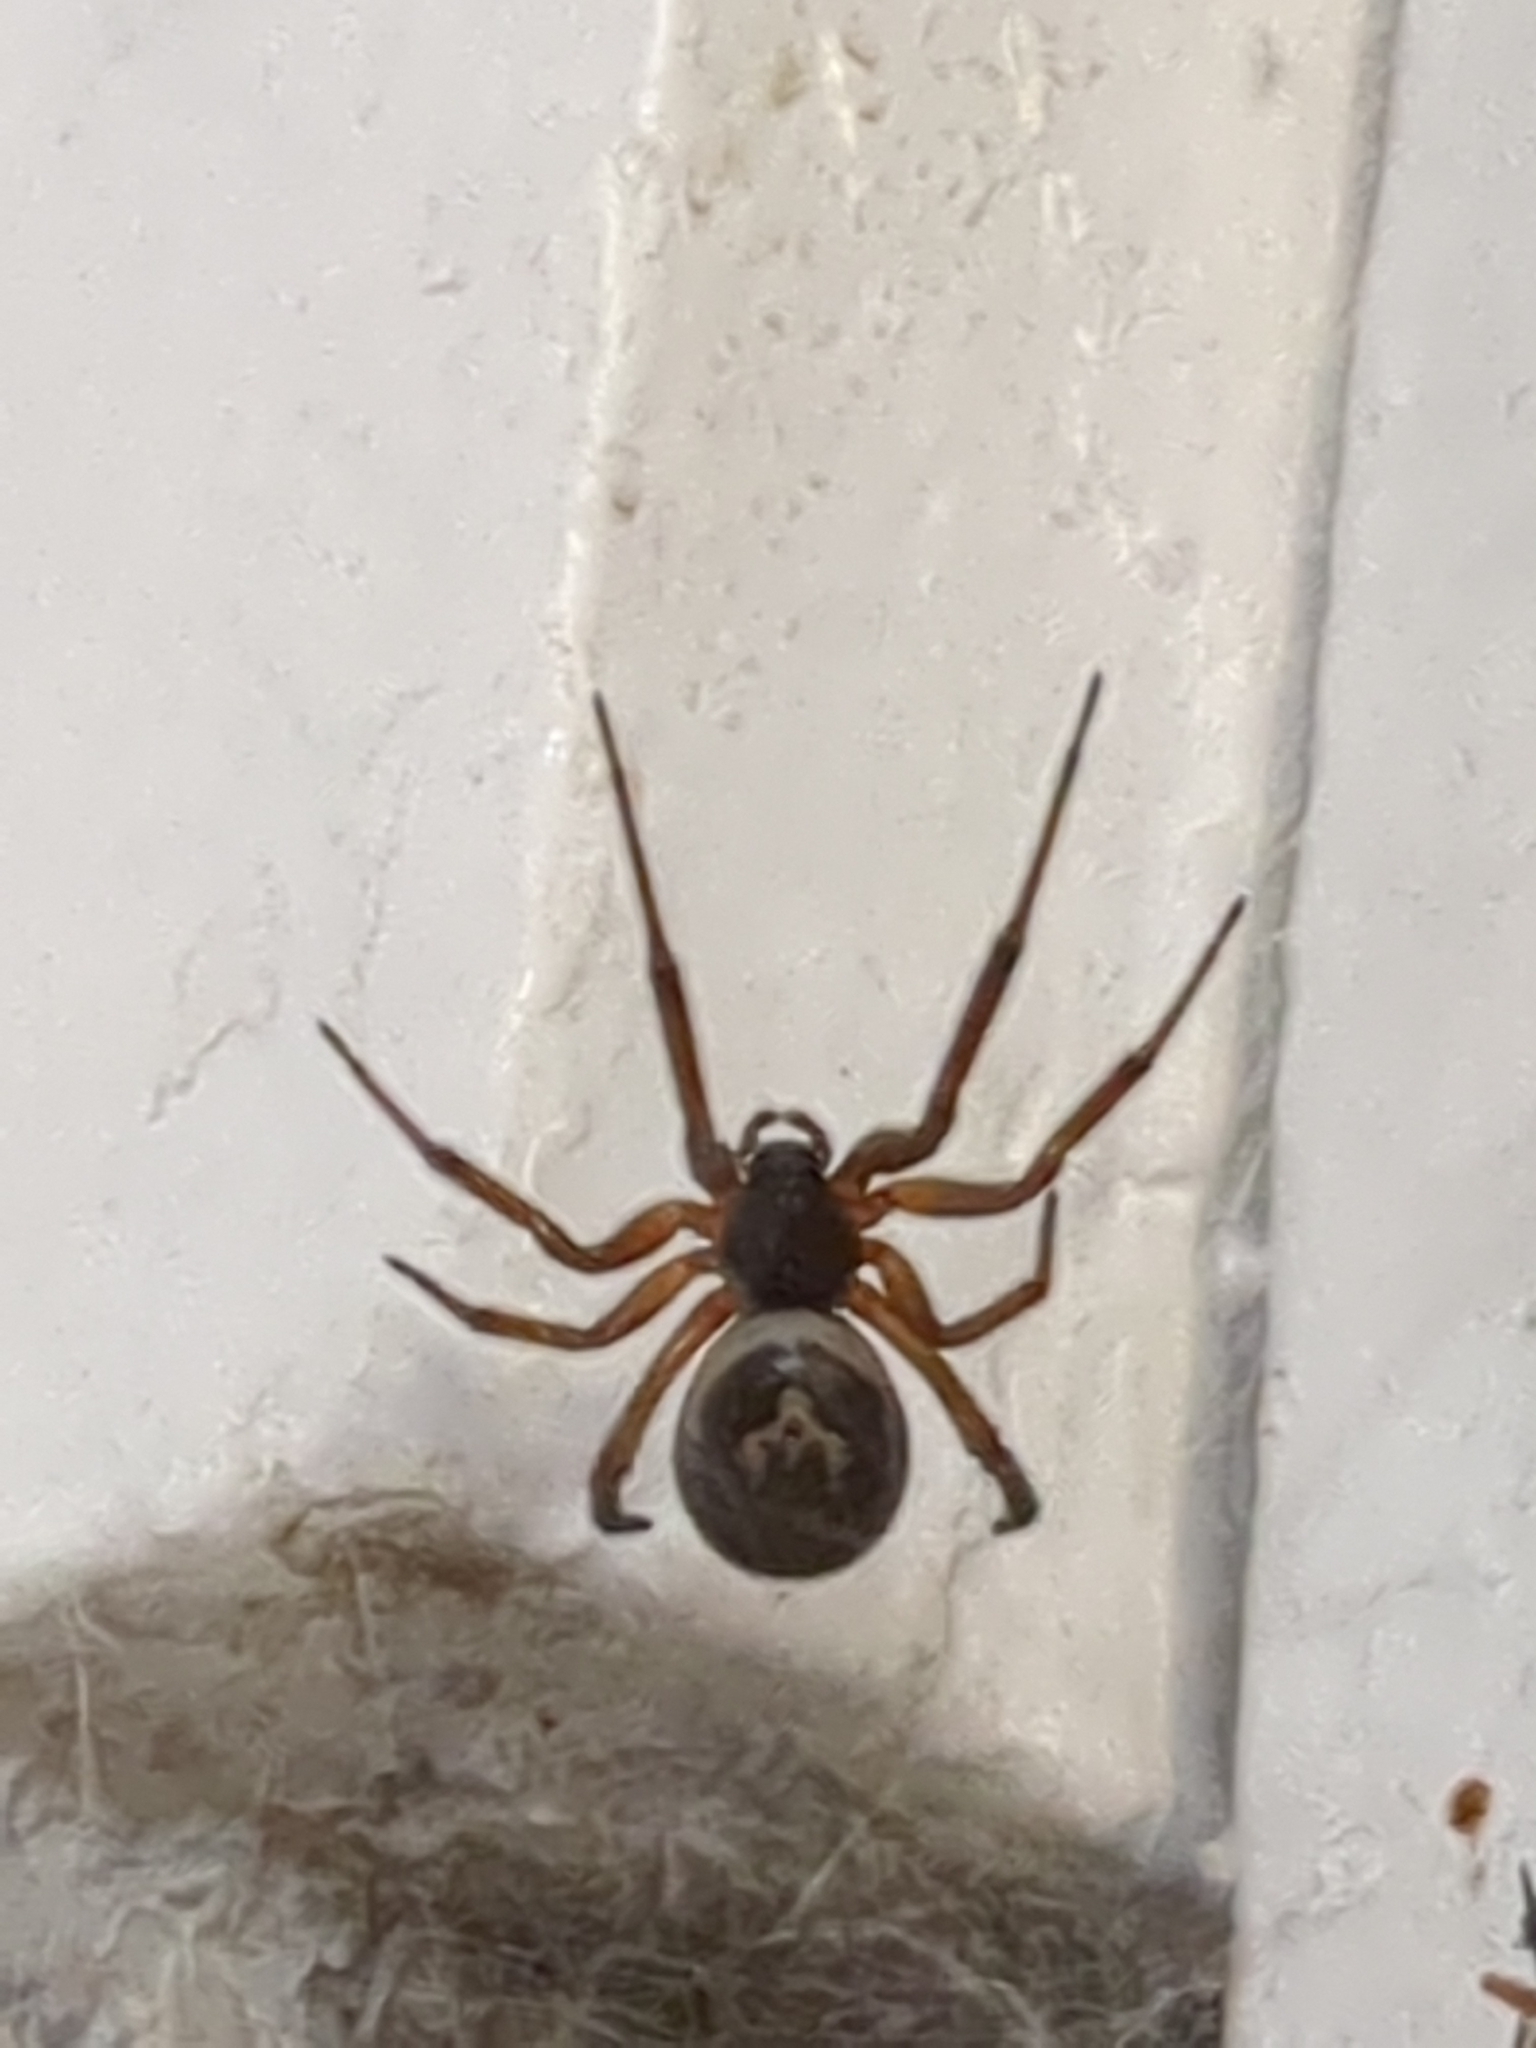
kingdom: Animalia
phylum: Arthropoda
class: Arachnida
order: Araneae
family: Theridiidae
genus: Steatoda
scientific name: Steatoda nobilis
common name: Cobweb weaver
